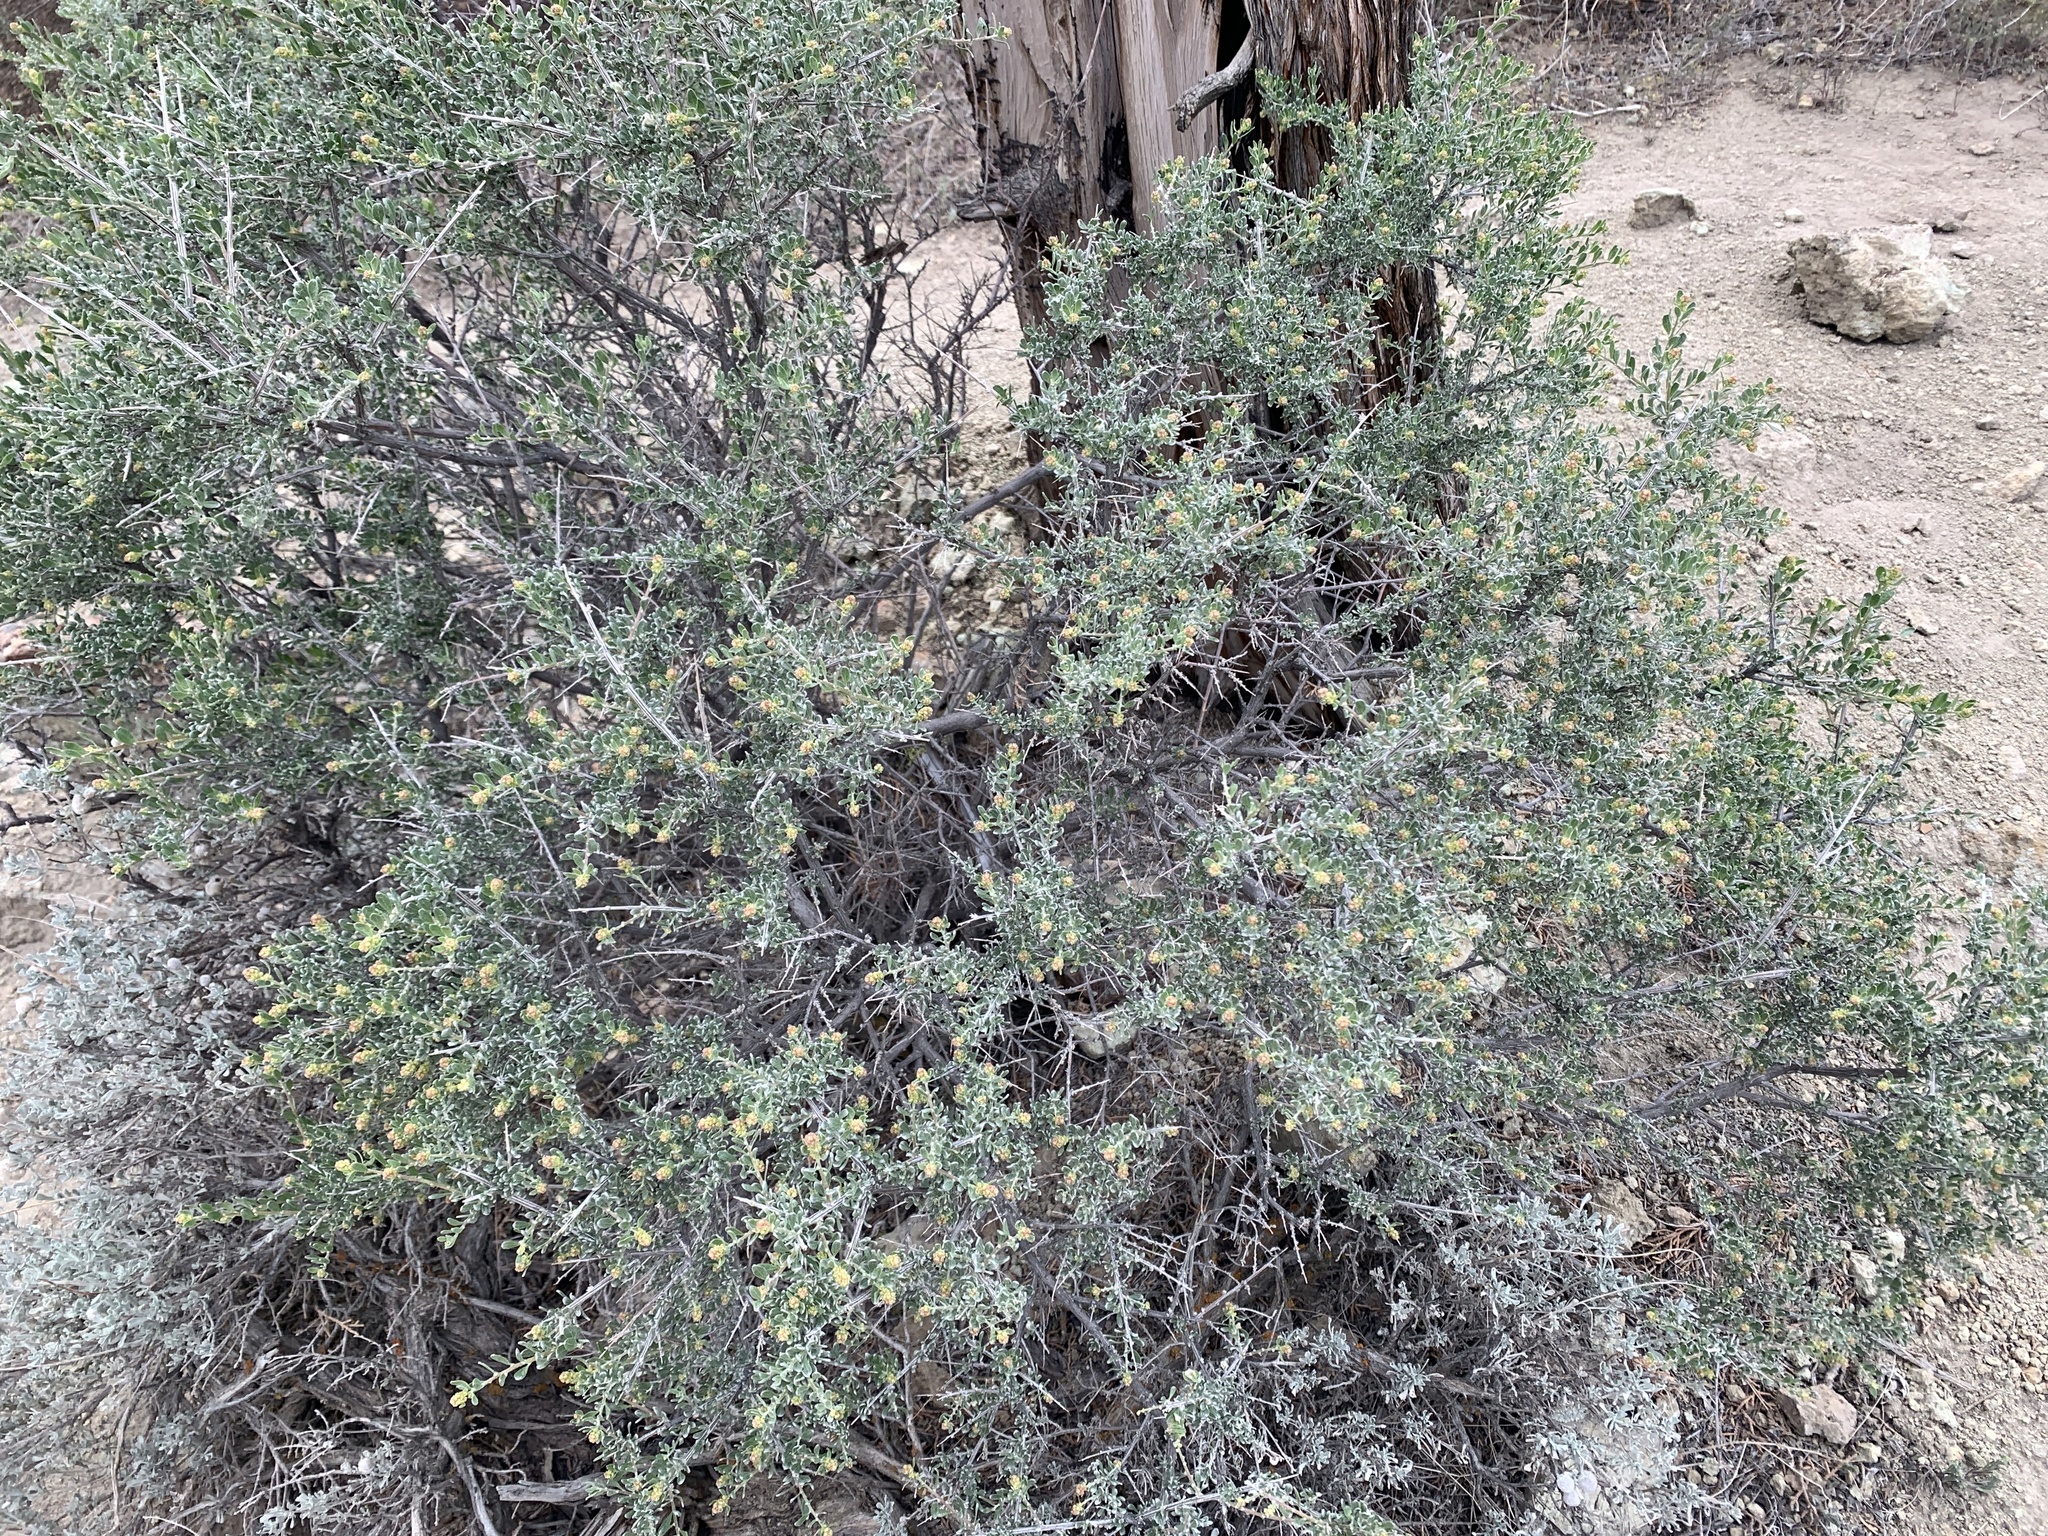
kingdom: Plantae
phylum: Tracheophyta
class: Magnoliopsida
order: Caryophyllales
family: Amaranthaceae
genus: Grayia
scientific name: Grayia spinosa
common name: Spiny hopsage
